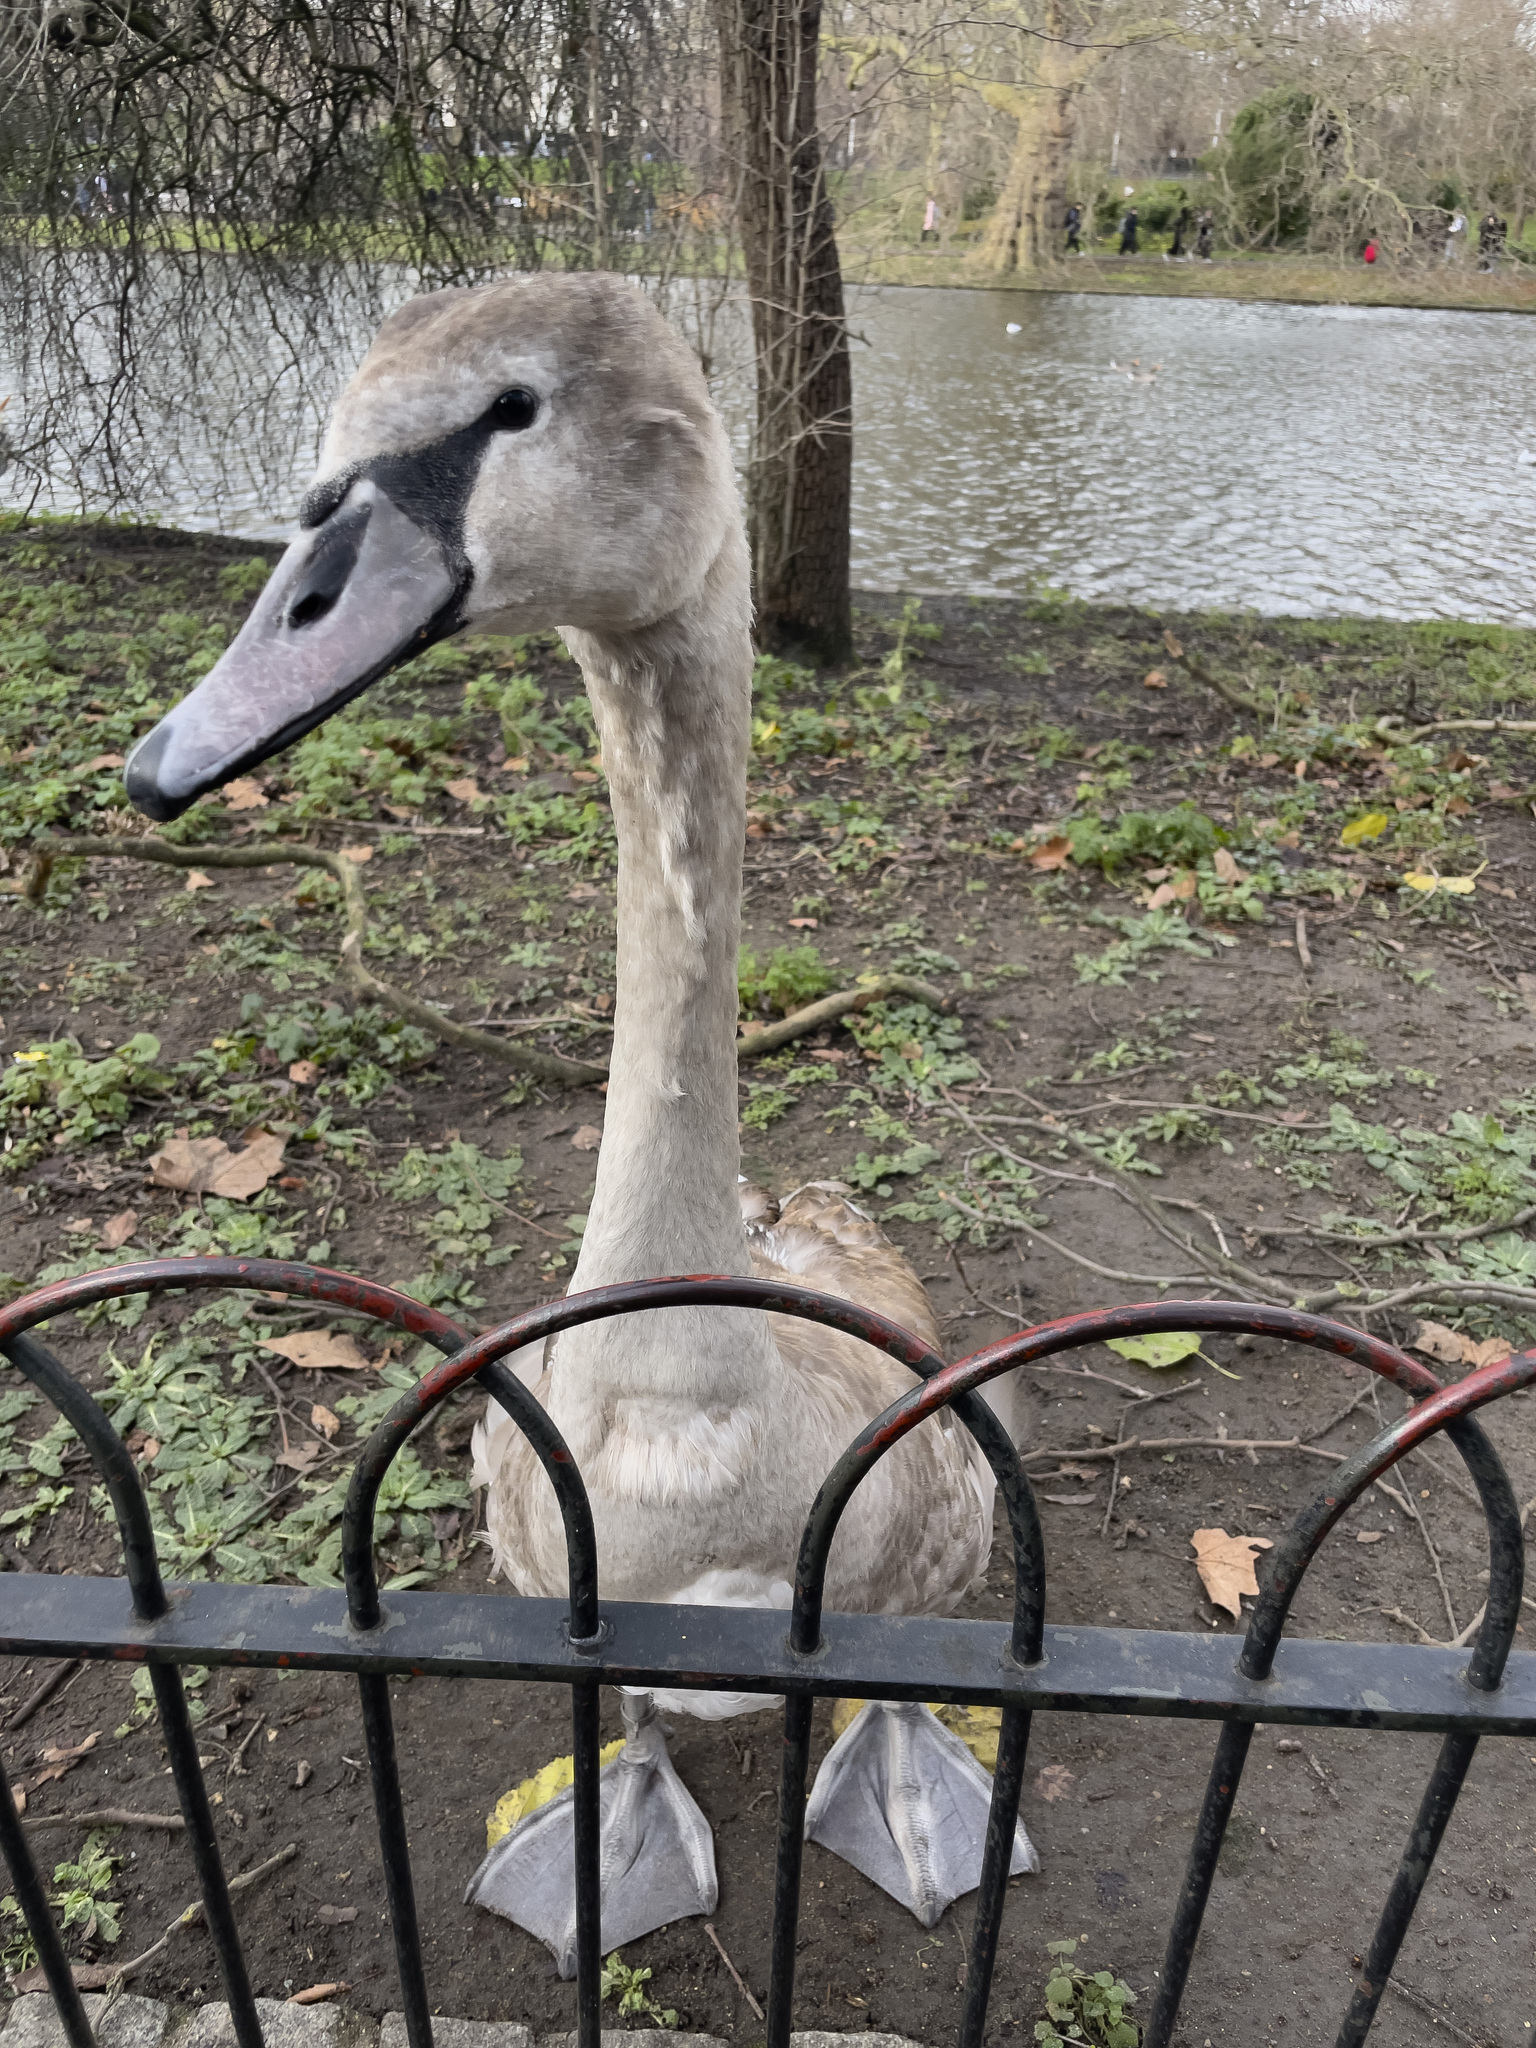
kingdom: Animalia
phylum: Chordata
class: Aves
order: Anseriformes
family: Anatidae
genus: Cygnus
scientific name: Cygnus olor
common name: Mute swan
